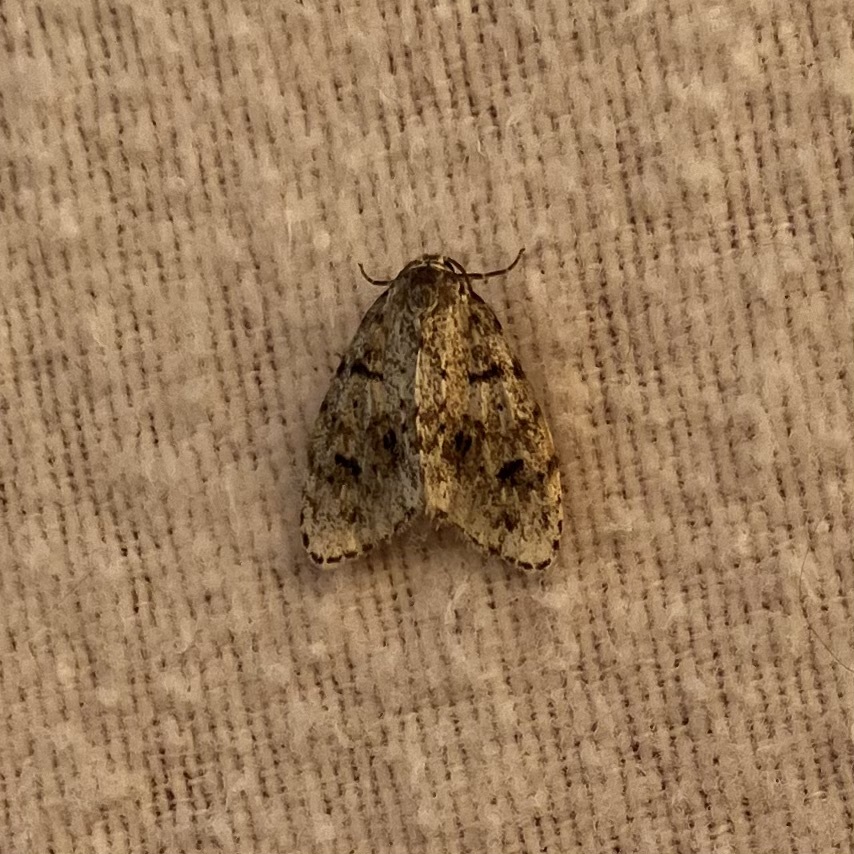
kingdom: Animalia
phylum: Arthropoda
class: Insecta
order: Lepidoptera
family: Erebidae
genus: Clemensia
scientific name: Clemensia umbrata
